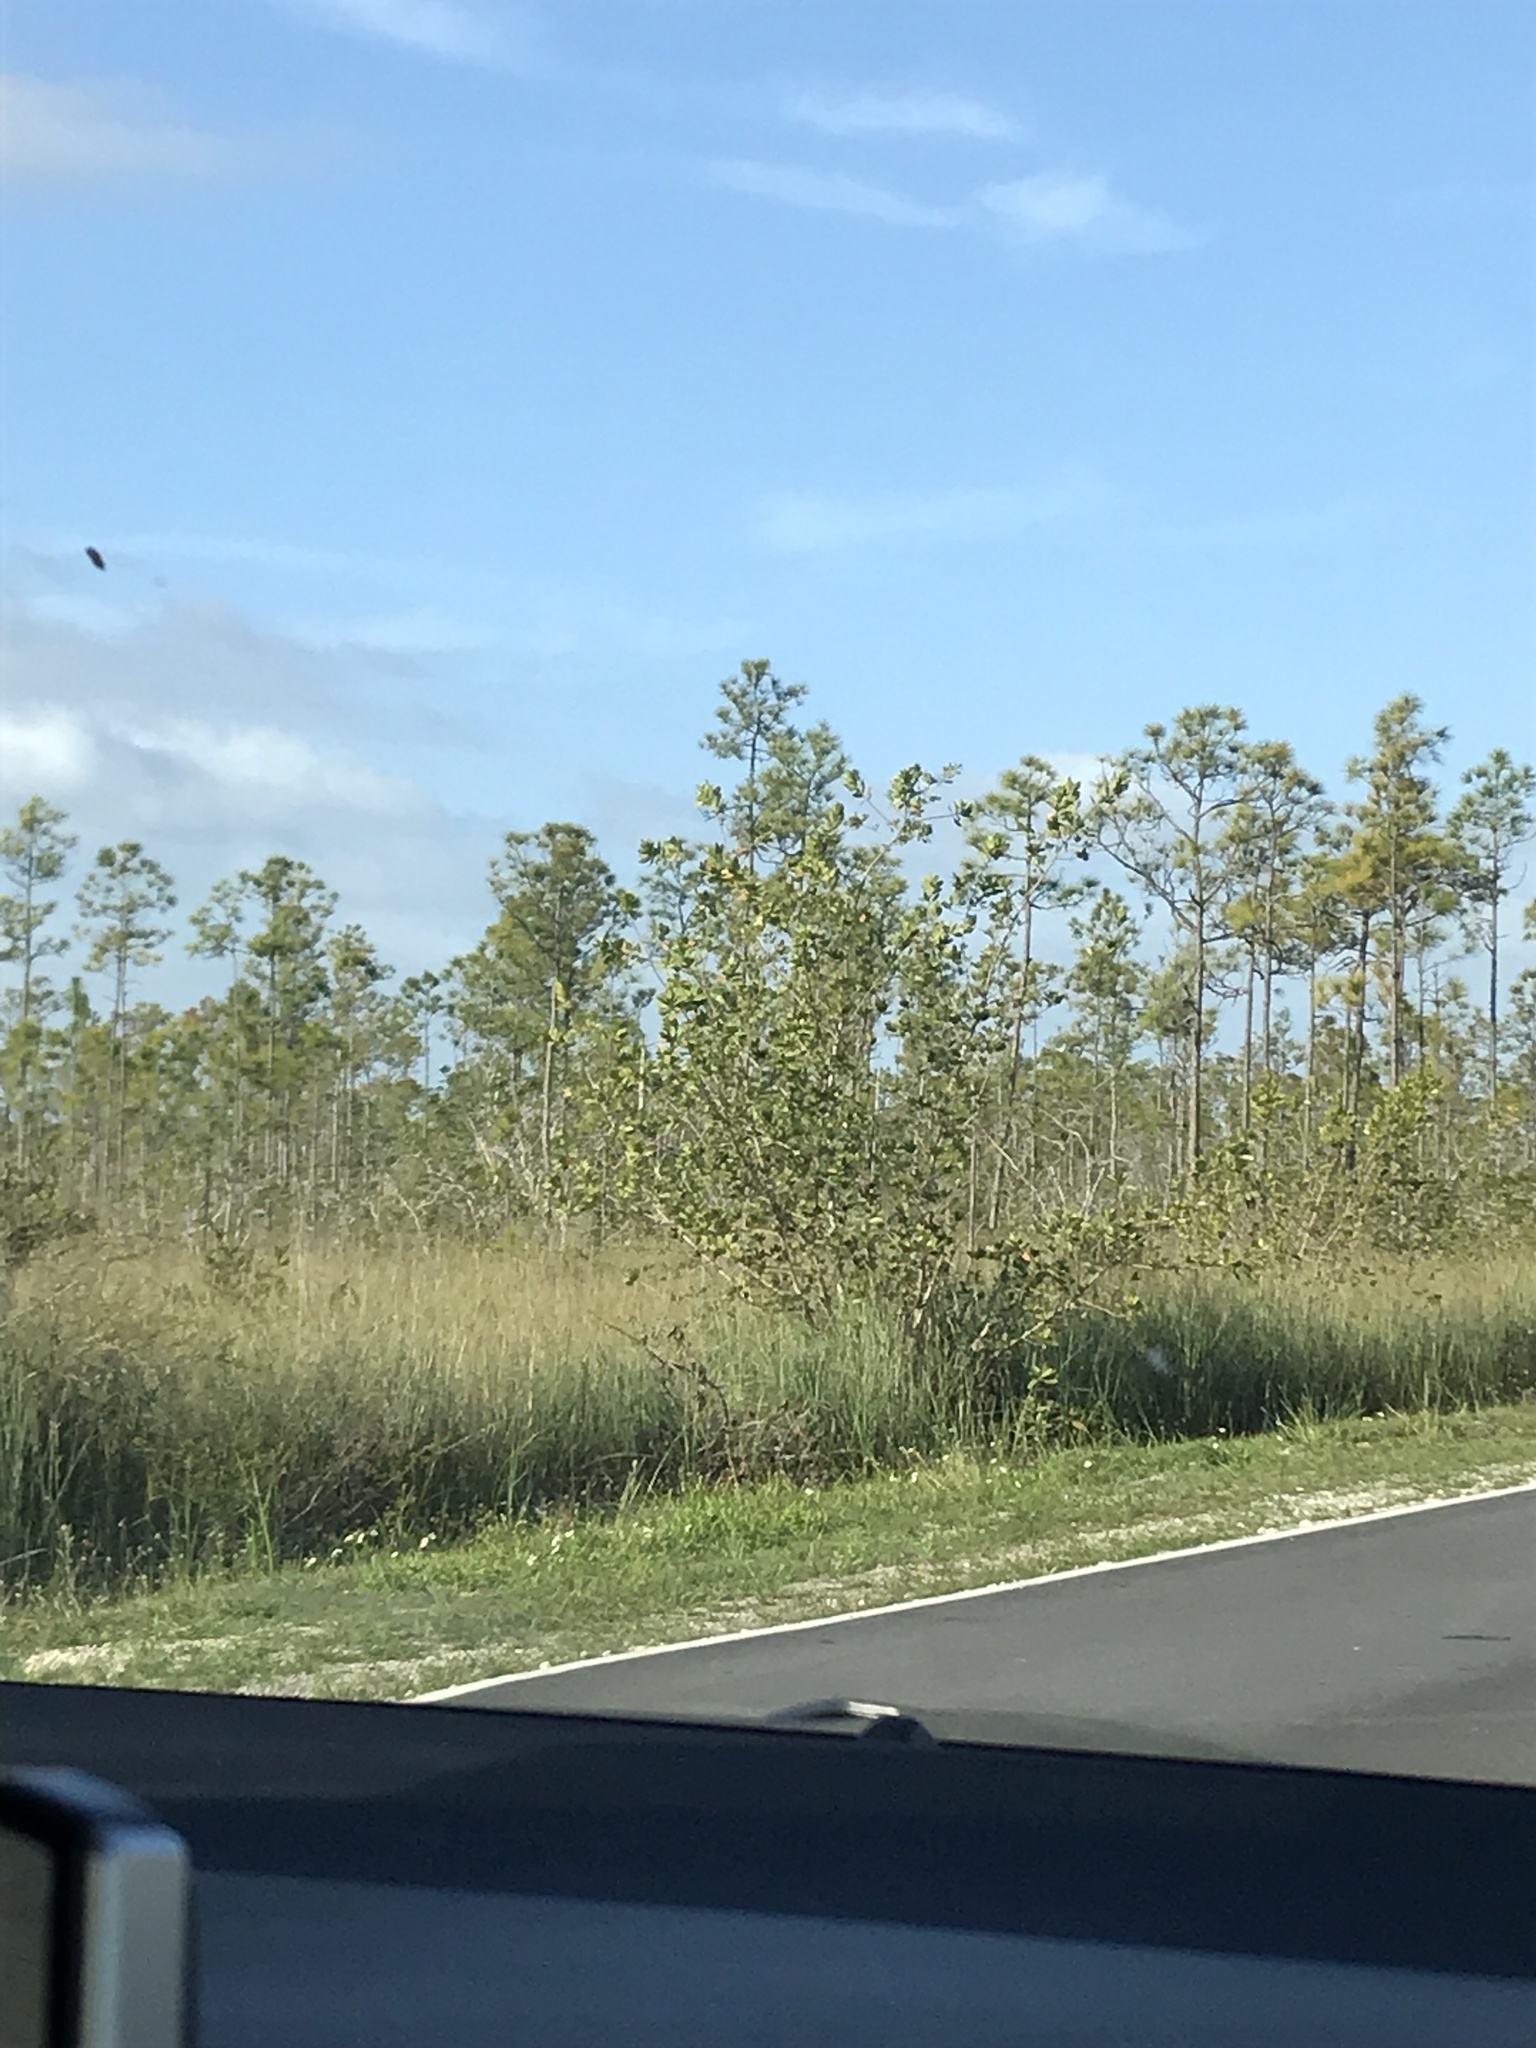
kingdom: Plantae
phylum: Tracheophyta
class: Pinopsida
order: Pinales
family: Pinaceae
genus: Pinus
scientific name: Pinus elliottii
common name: Slash pine
